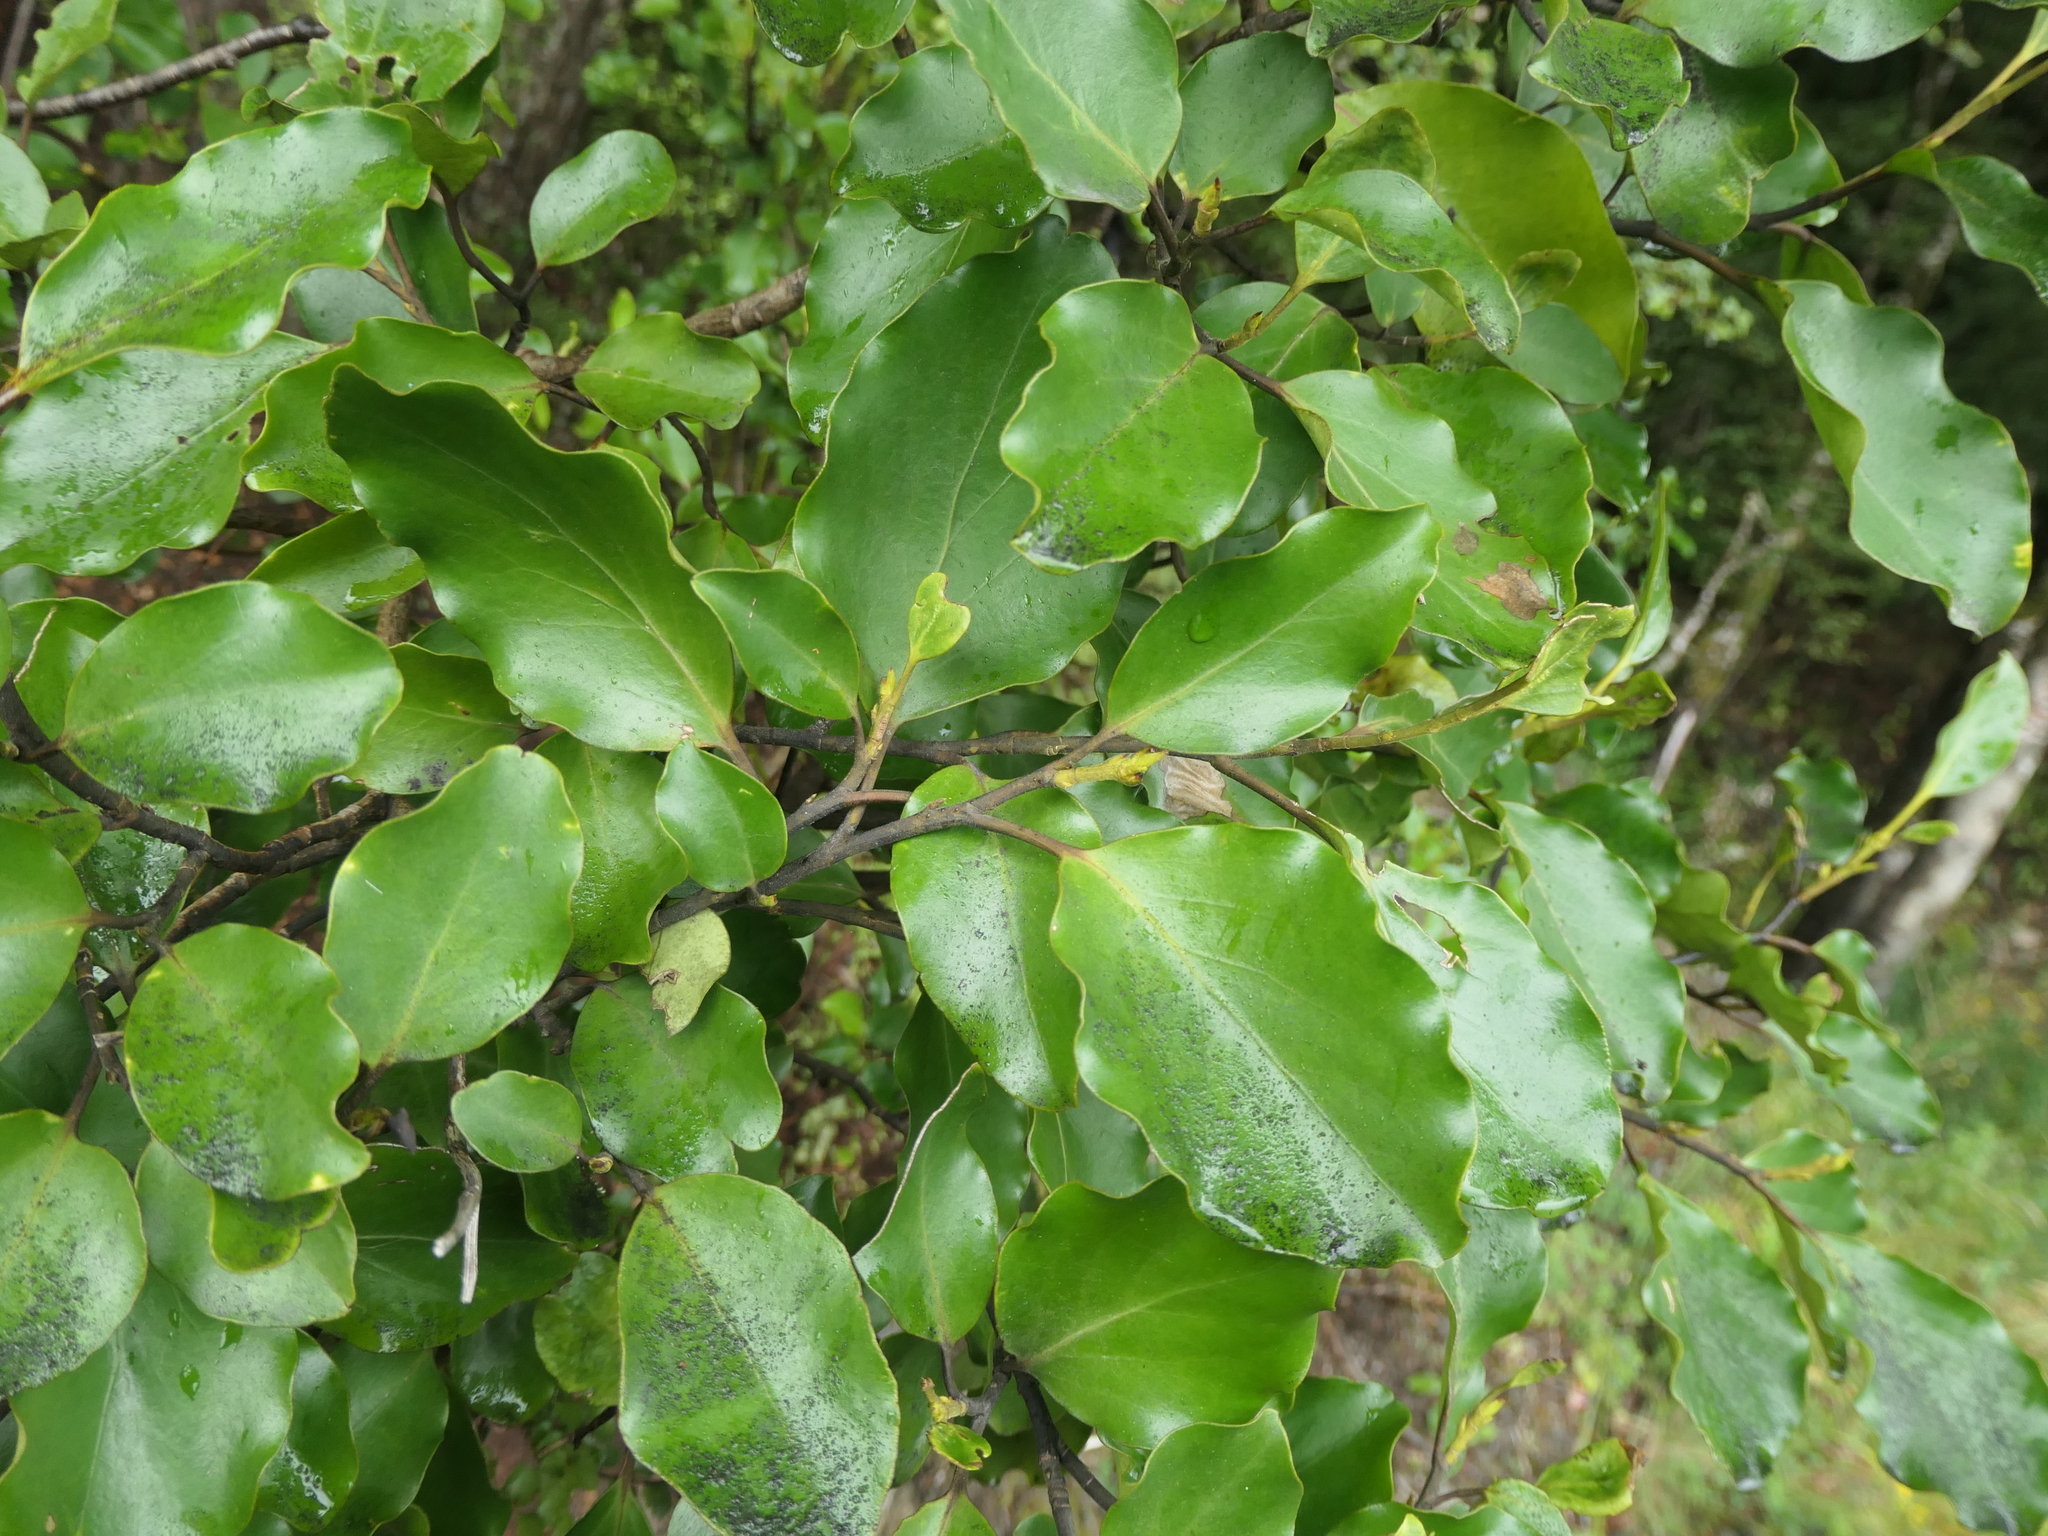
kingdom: Plantae
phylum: Tracheophyta
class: Magnoliopsida
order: Apiales
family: Griseliniaceae
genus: Griselinia
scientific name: Griselinia littoralis
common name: New zealand broadleaf
